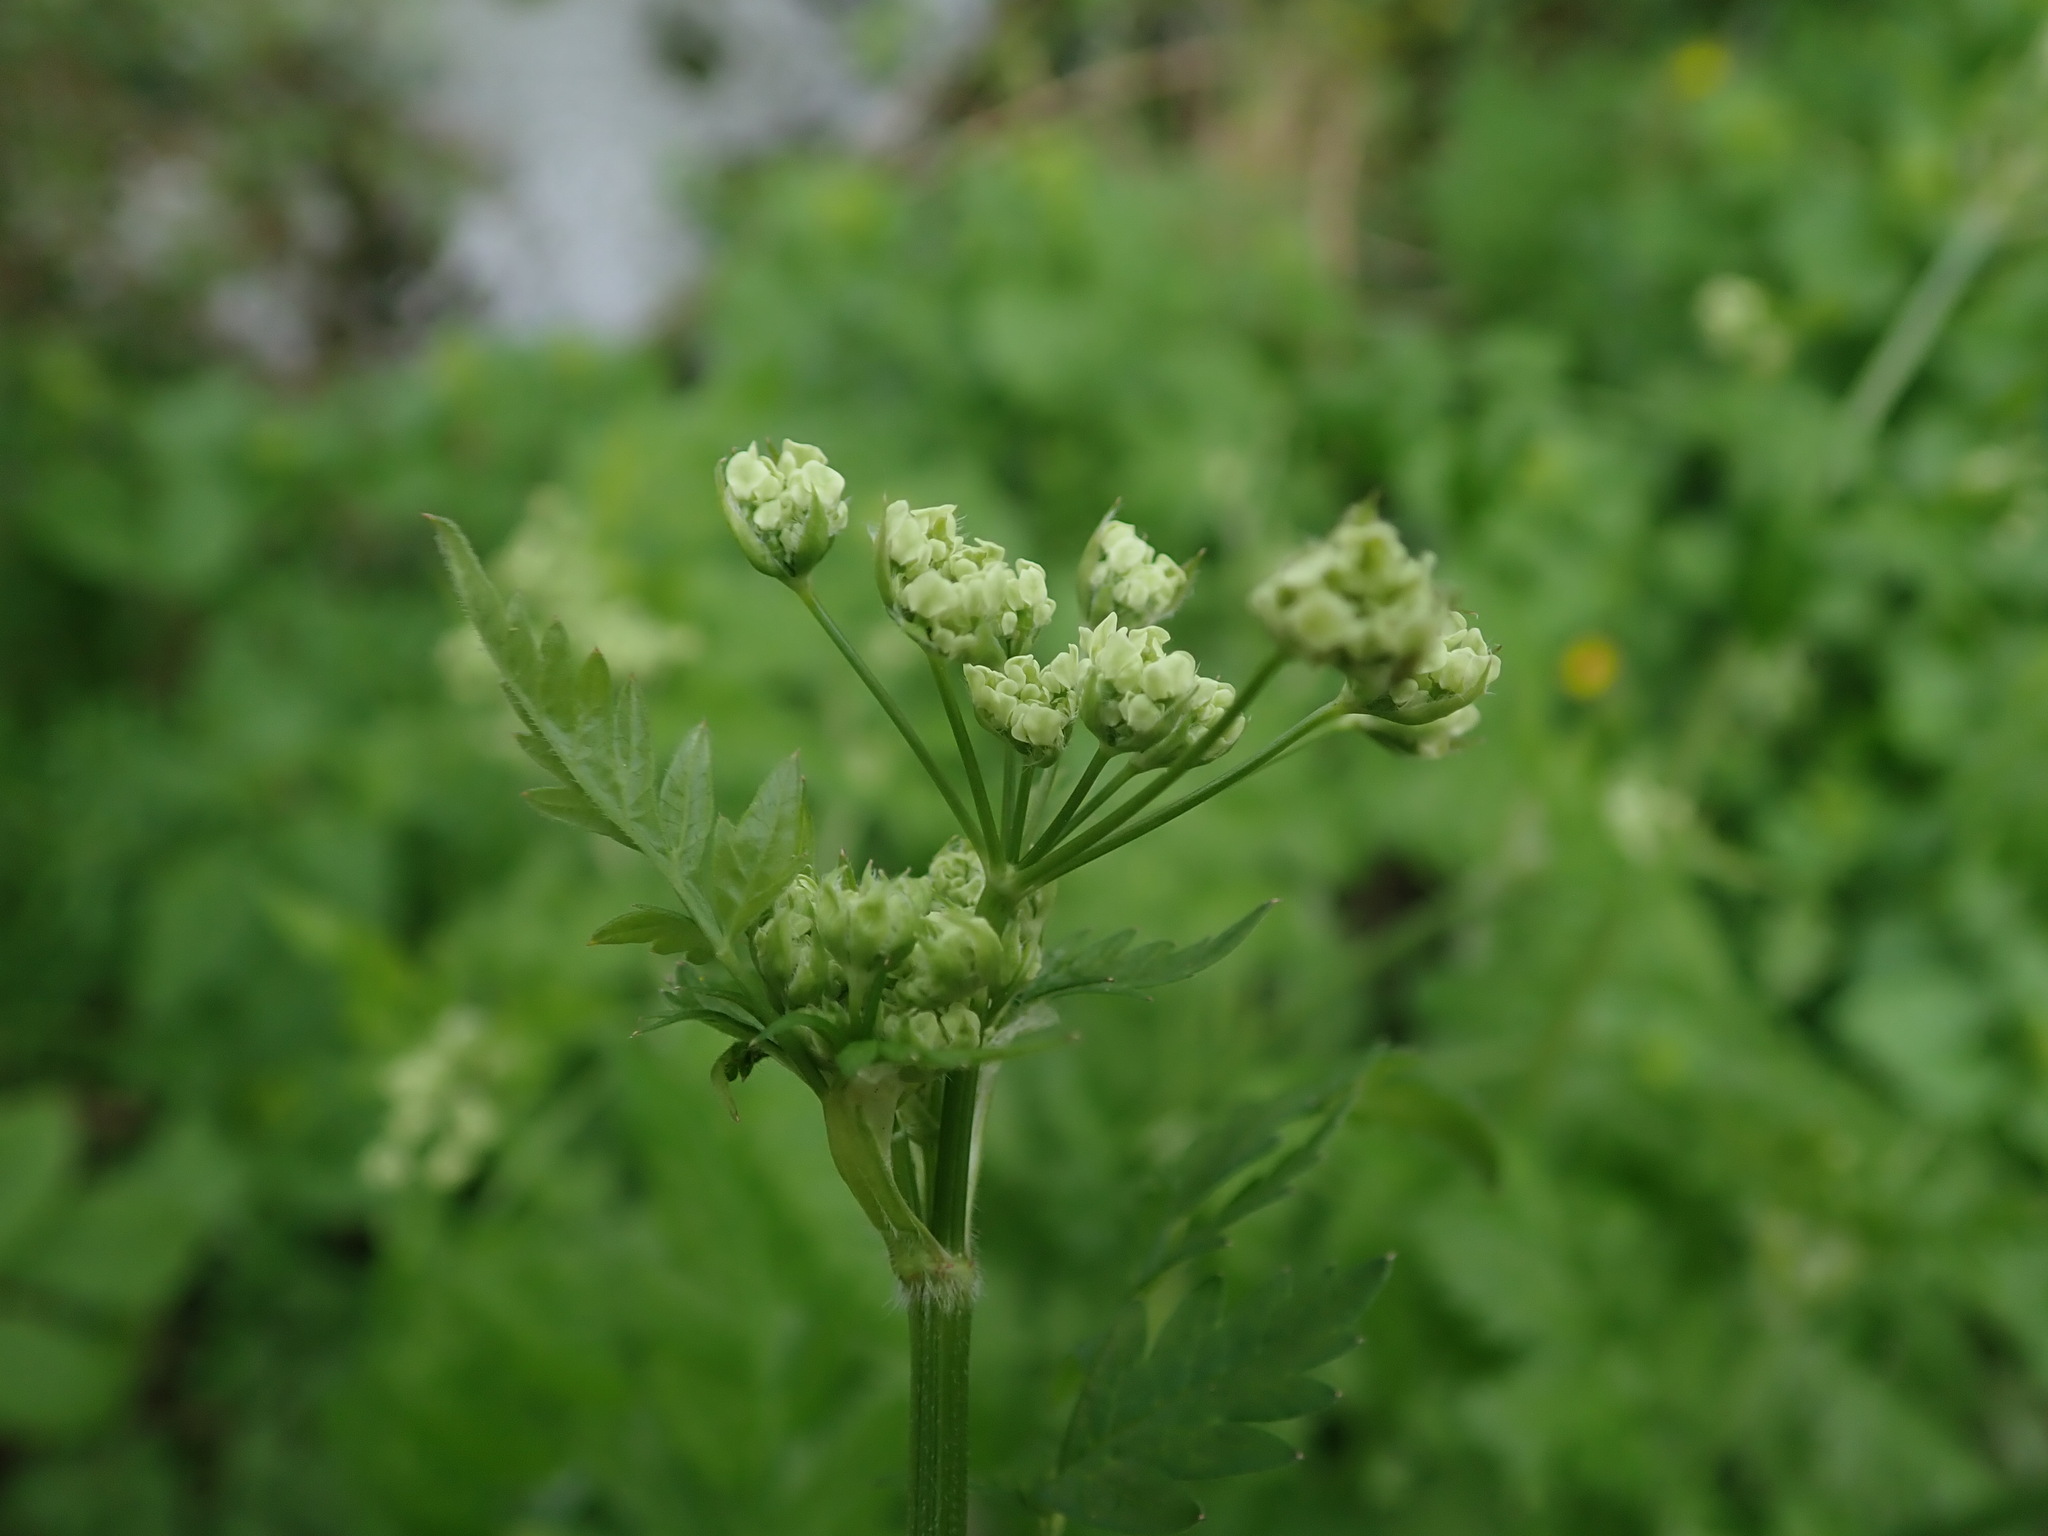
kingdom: Plantae
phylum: Tracheophyta
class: Magnoliopsida
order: Apiales
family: Apiaceae
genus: Anthriscus
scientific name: Anthriscus sylvestris
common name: Cow parsley
